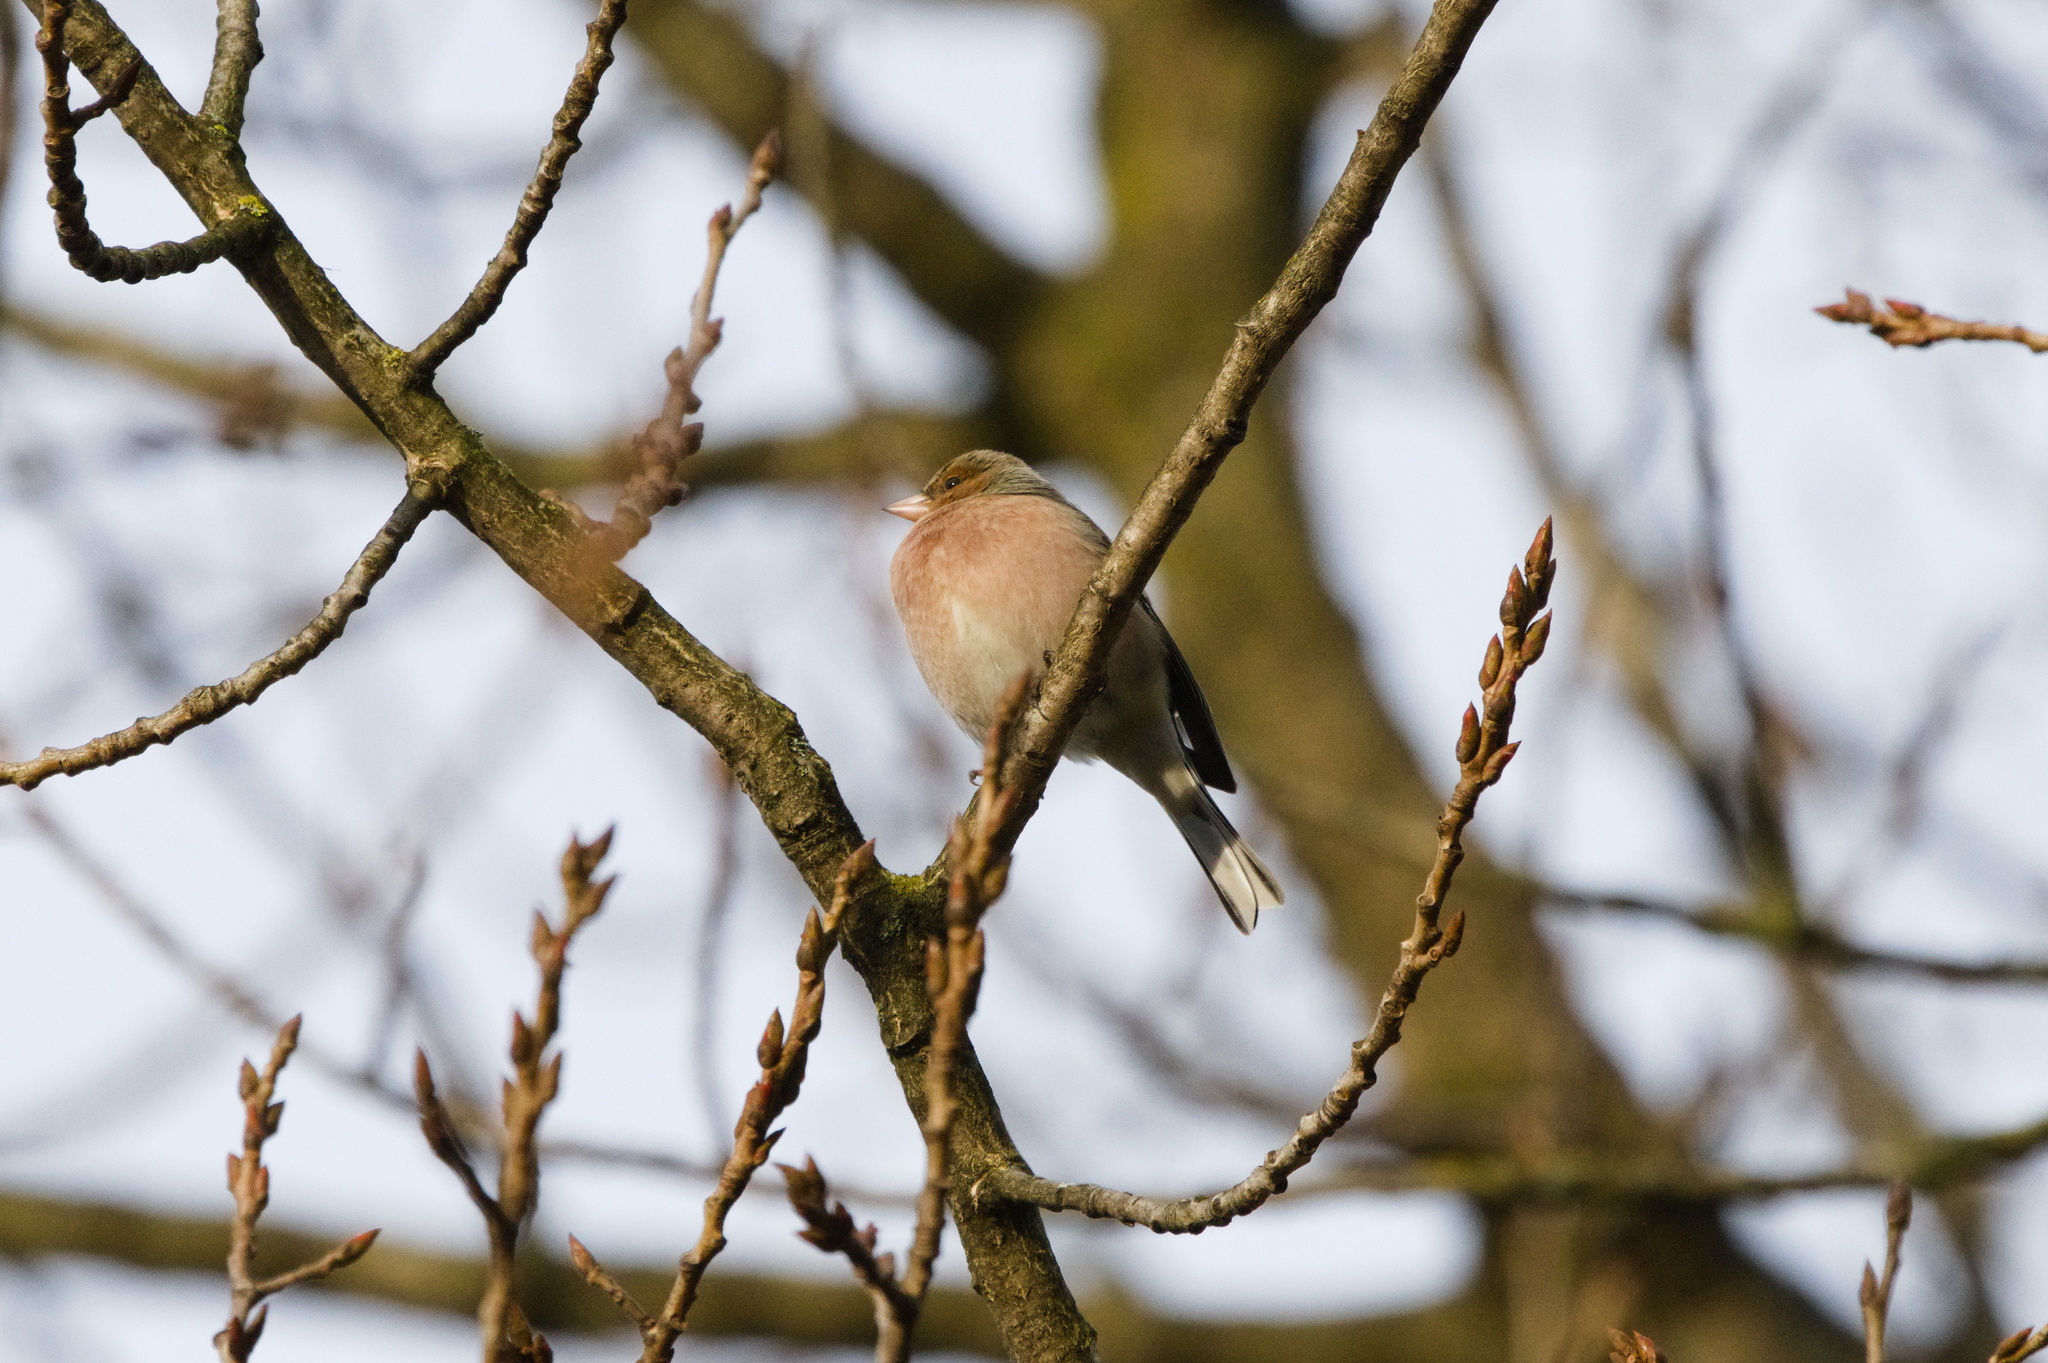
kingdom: Animalia
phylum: Chordata
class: Aves
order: Passeriformes
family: Fringillidae
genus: Fringilla
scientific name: Fringilla coelebs
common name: Common chaffinch
